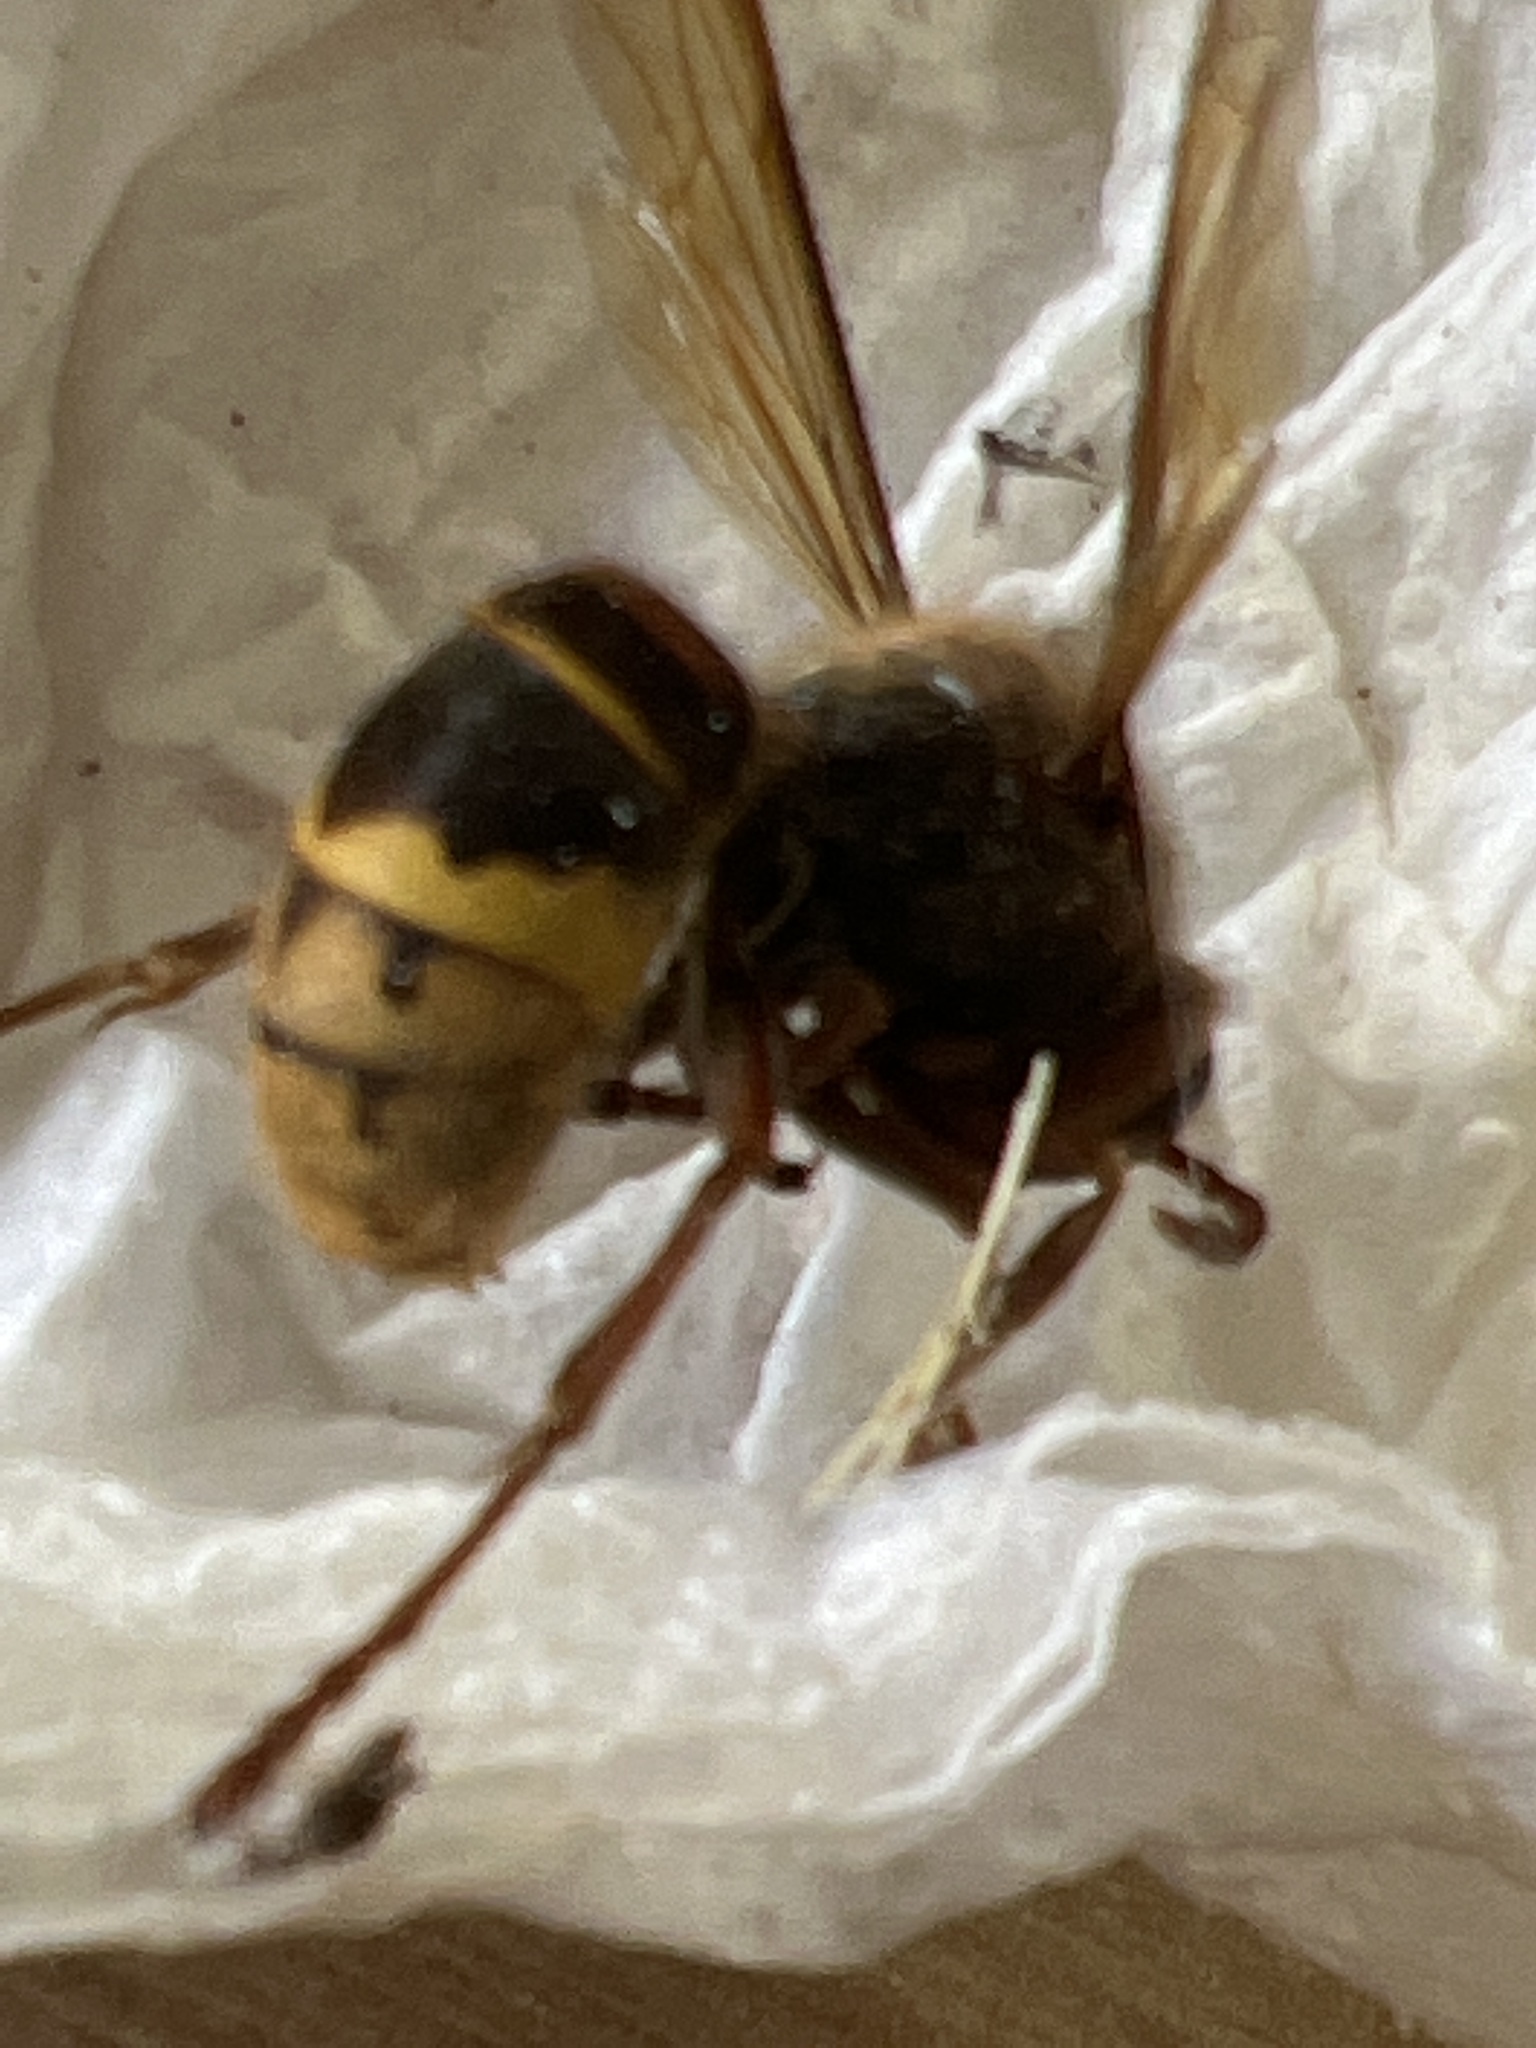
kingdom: Animalia
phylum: Arthropoda
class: Insecta
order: Hymenoptera
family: Vespidae
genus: Vespa
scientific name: Vespa crabro
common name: Hornet
